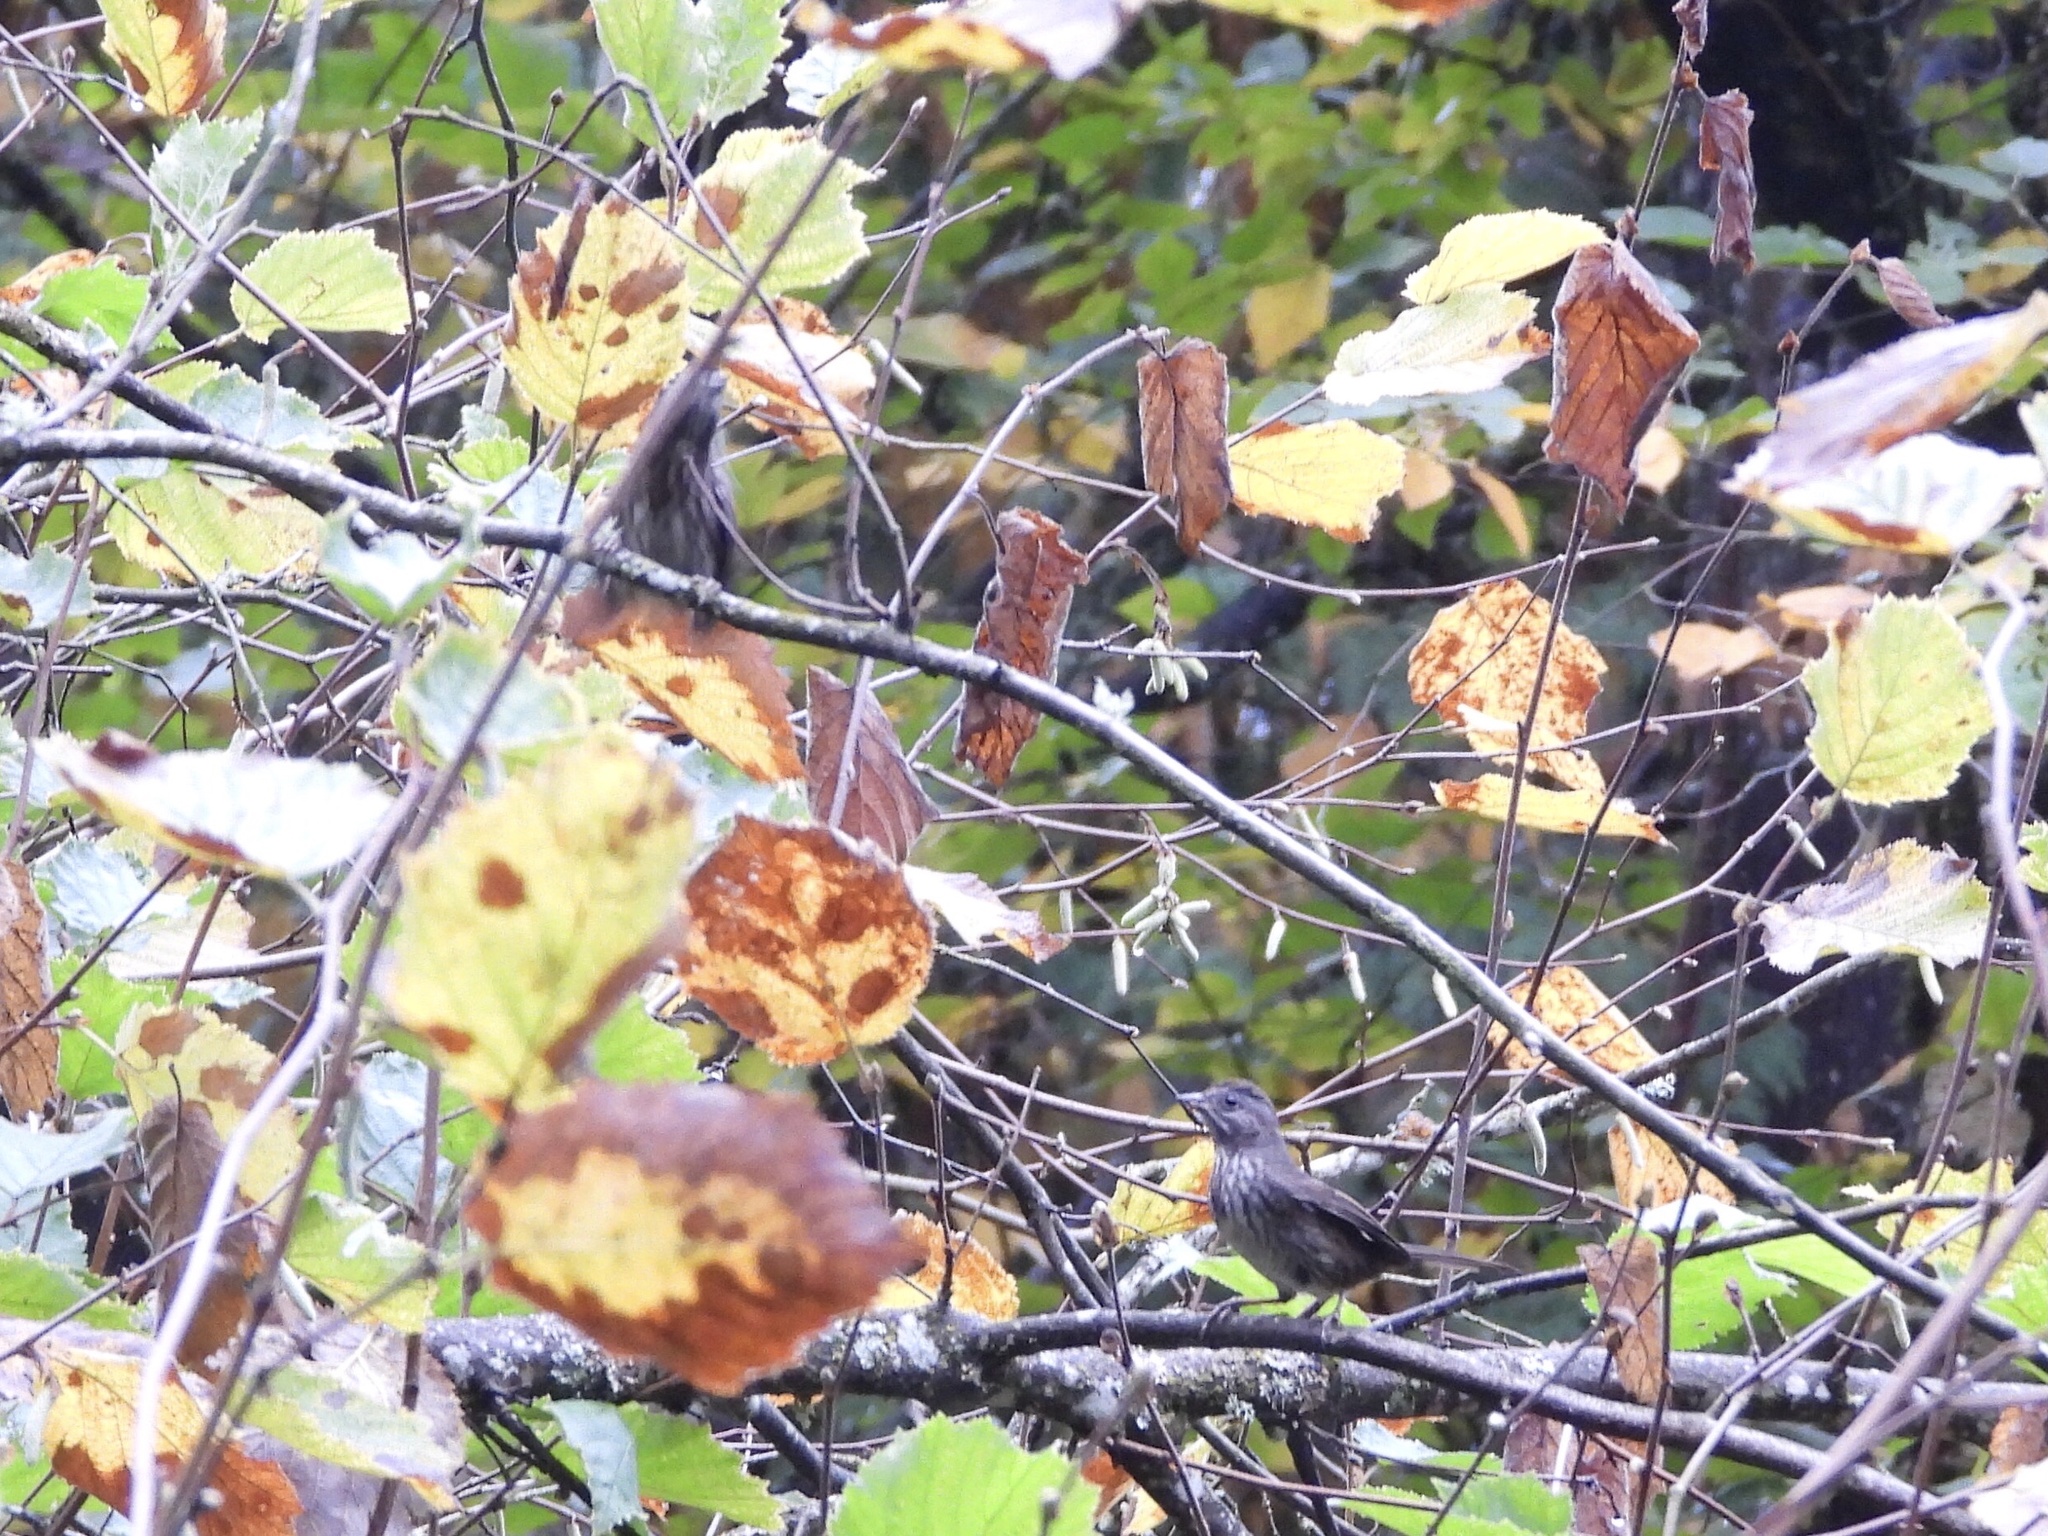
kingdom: Animalia
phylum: Chordata
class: Aves
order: Passeriformes
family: Passerellidae
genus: Melospiza
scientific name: Melospiza melodia
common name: Song sparrow
